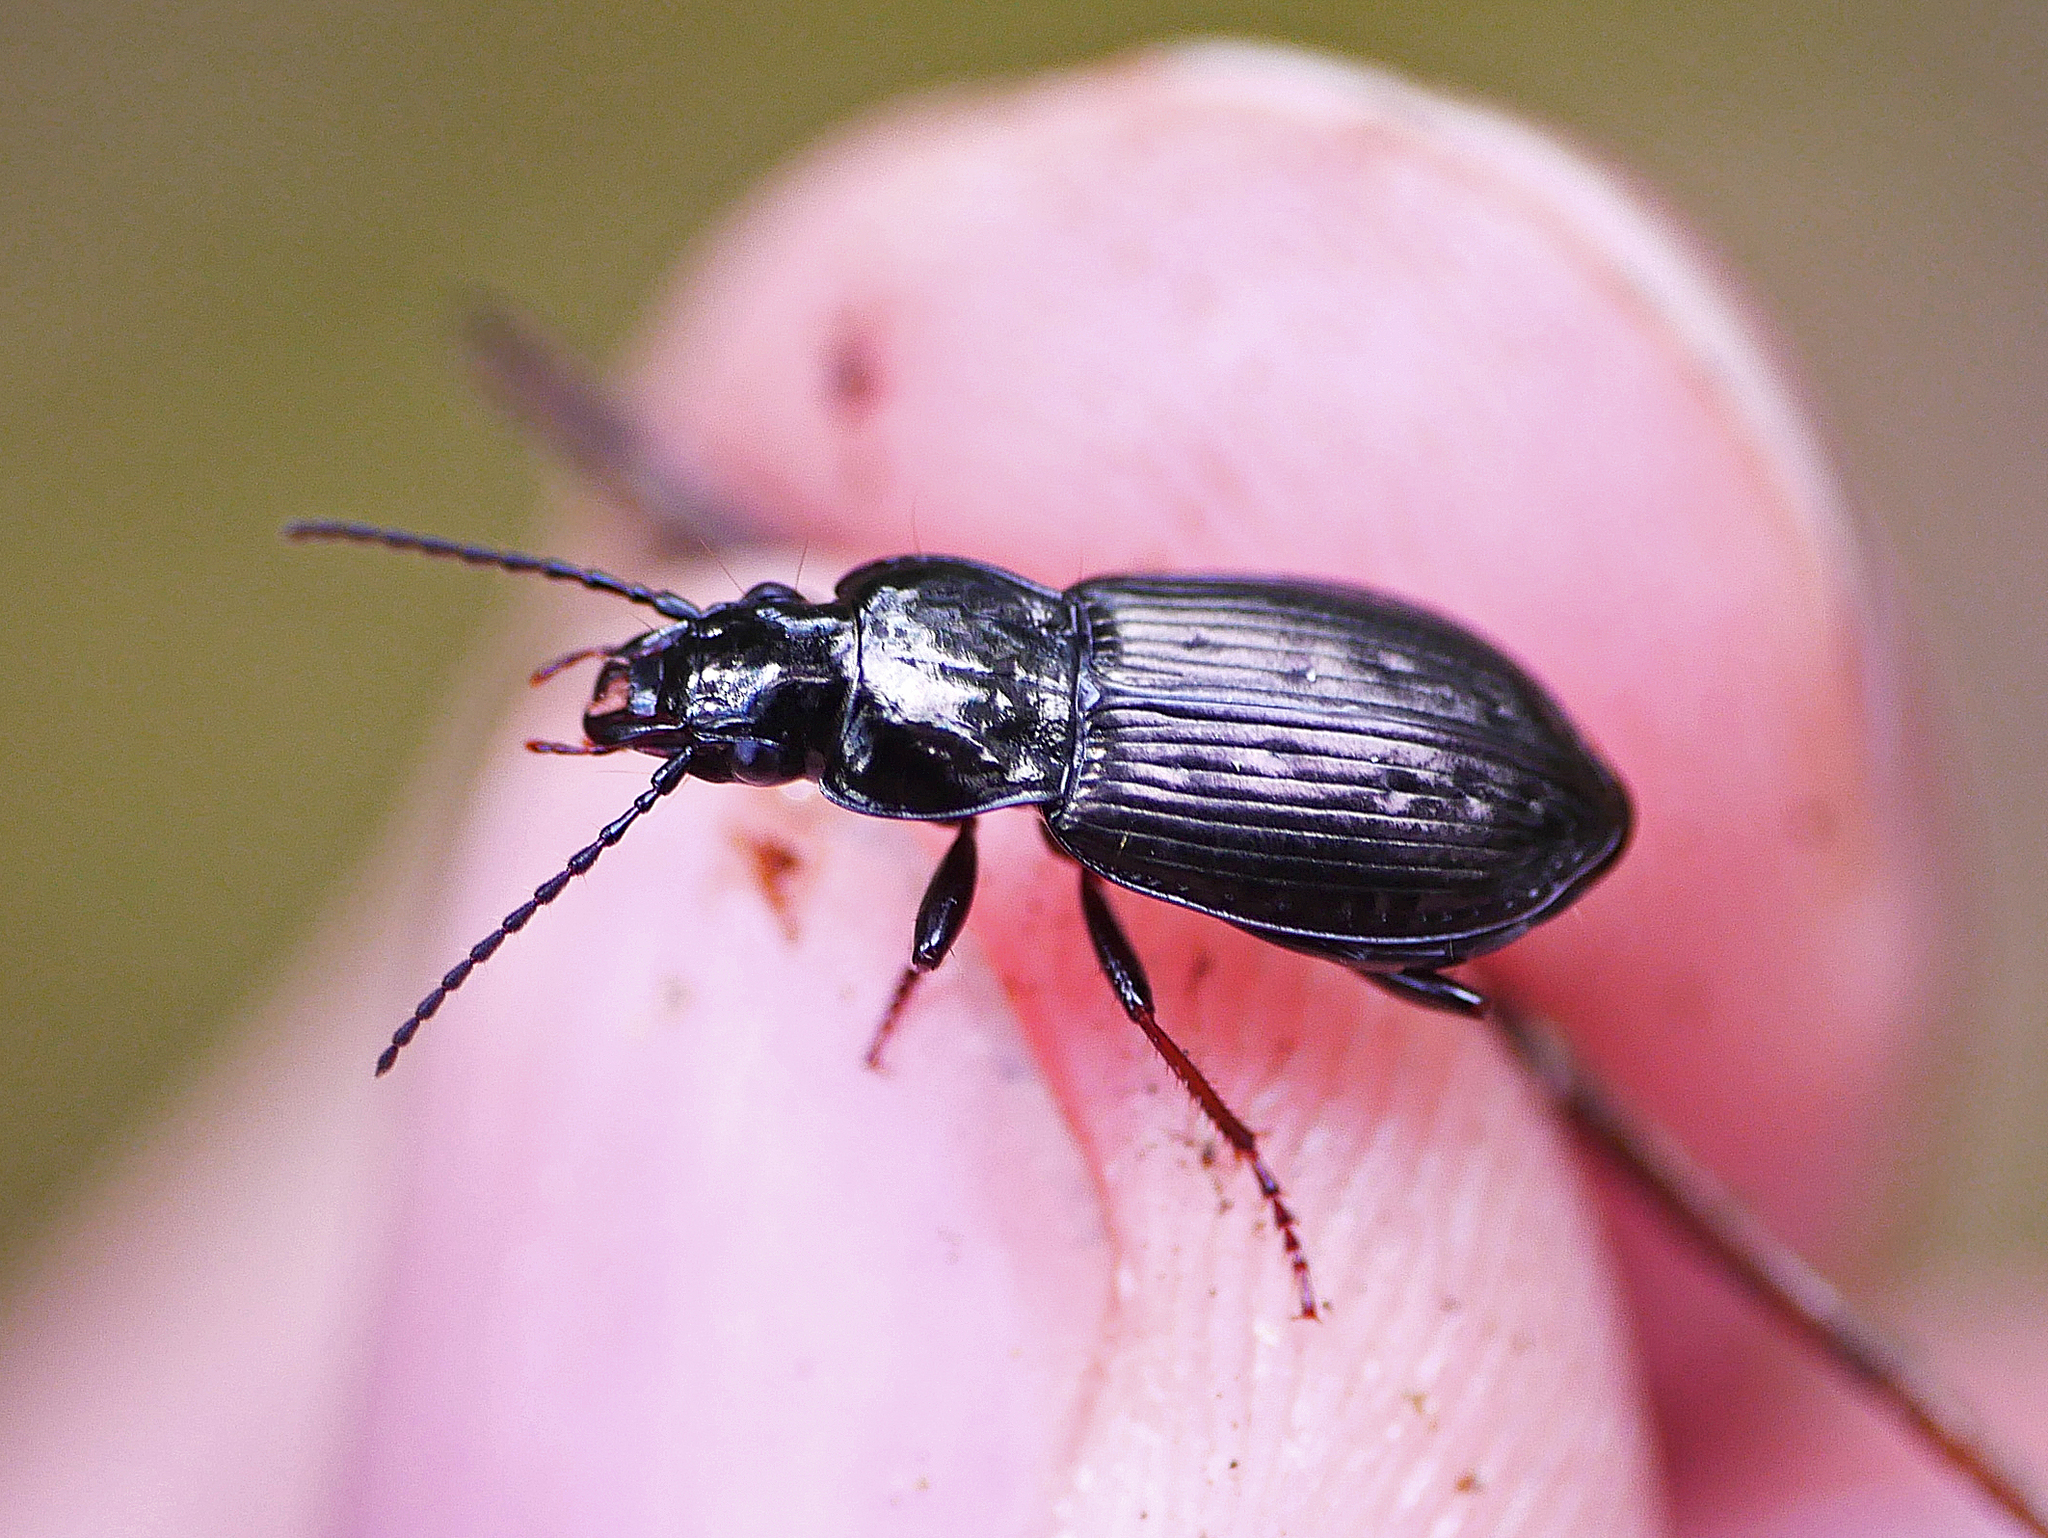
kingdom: Animalia
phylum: Arthropoda
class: Insecta
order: Coleoptera
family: Carabidae
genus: Pterostichus
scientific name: Pterostichus oblongopunctatus
